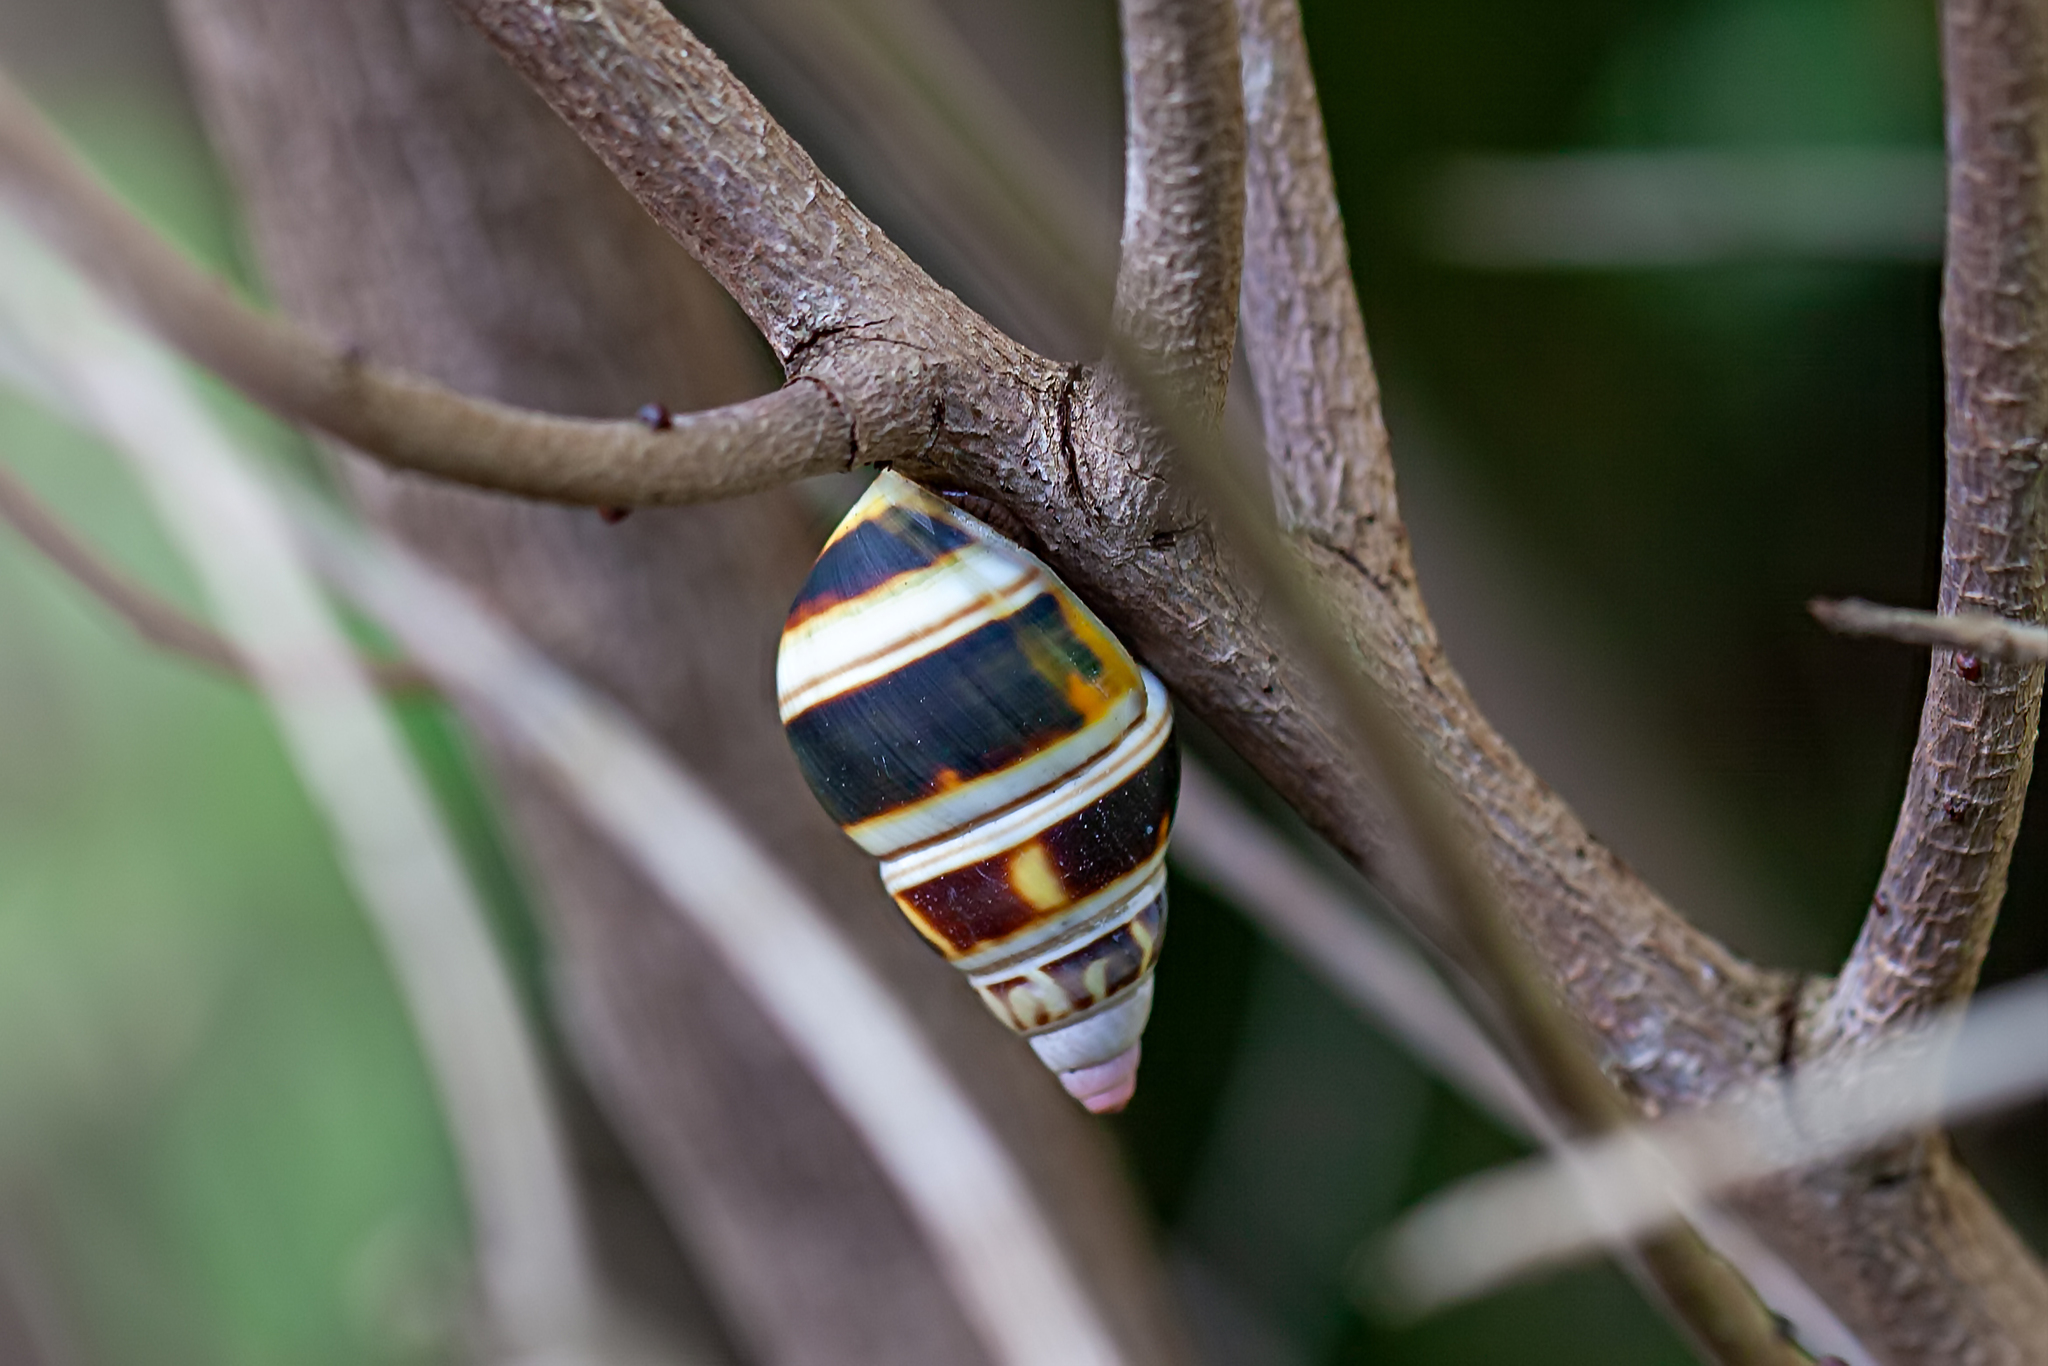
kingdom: Animalia
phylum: Mollusca
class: Gastropoda
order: Stylommatophora
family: Orthalicidae
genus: Liguus
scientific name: Liguus fasciatus
